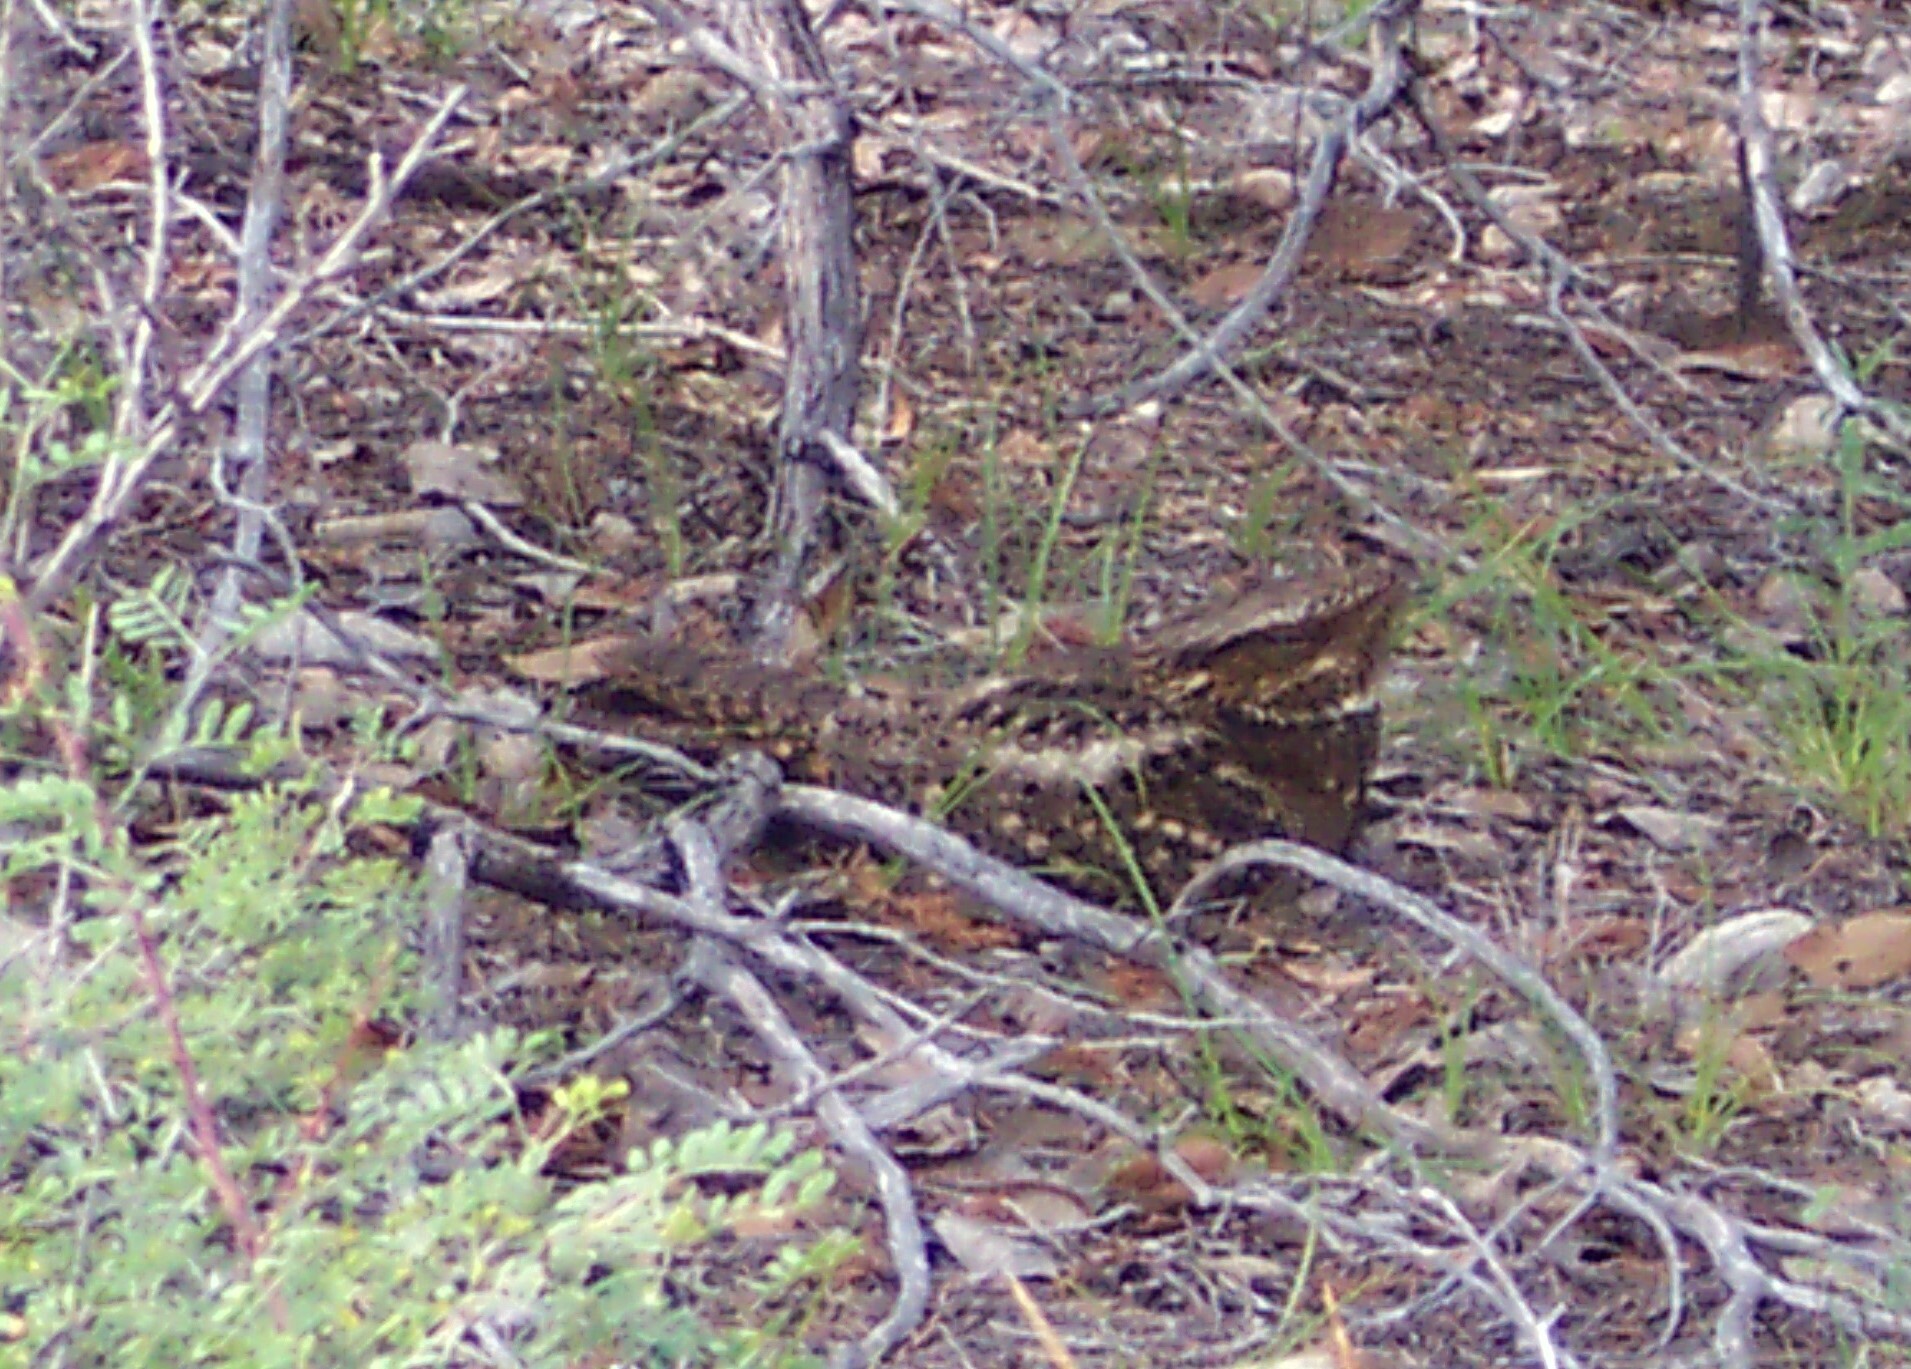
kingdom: Animalia
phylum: Chordata
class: Aves
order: Caprimulgiformes
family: Caprimulgidae
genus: Antrostomus
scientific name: Antrostomus carolinensis
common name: Chuck-will's-widow
